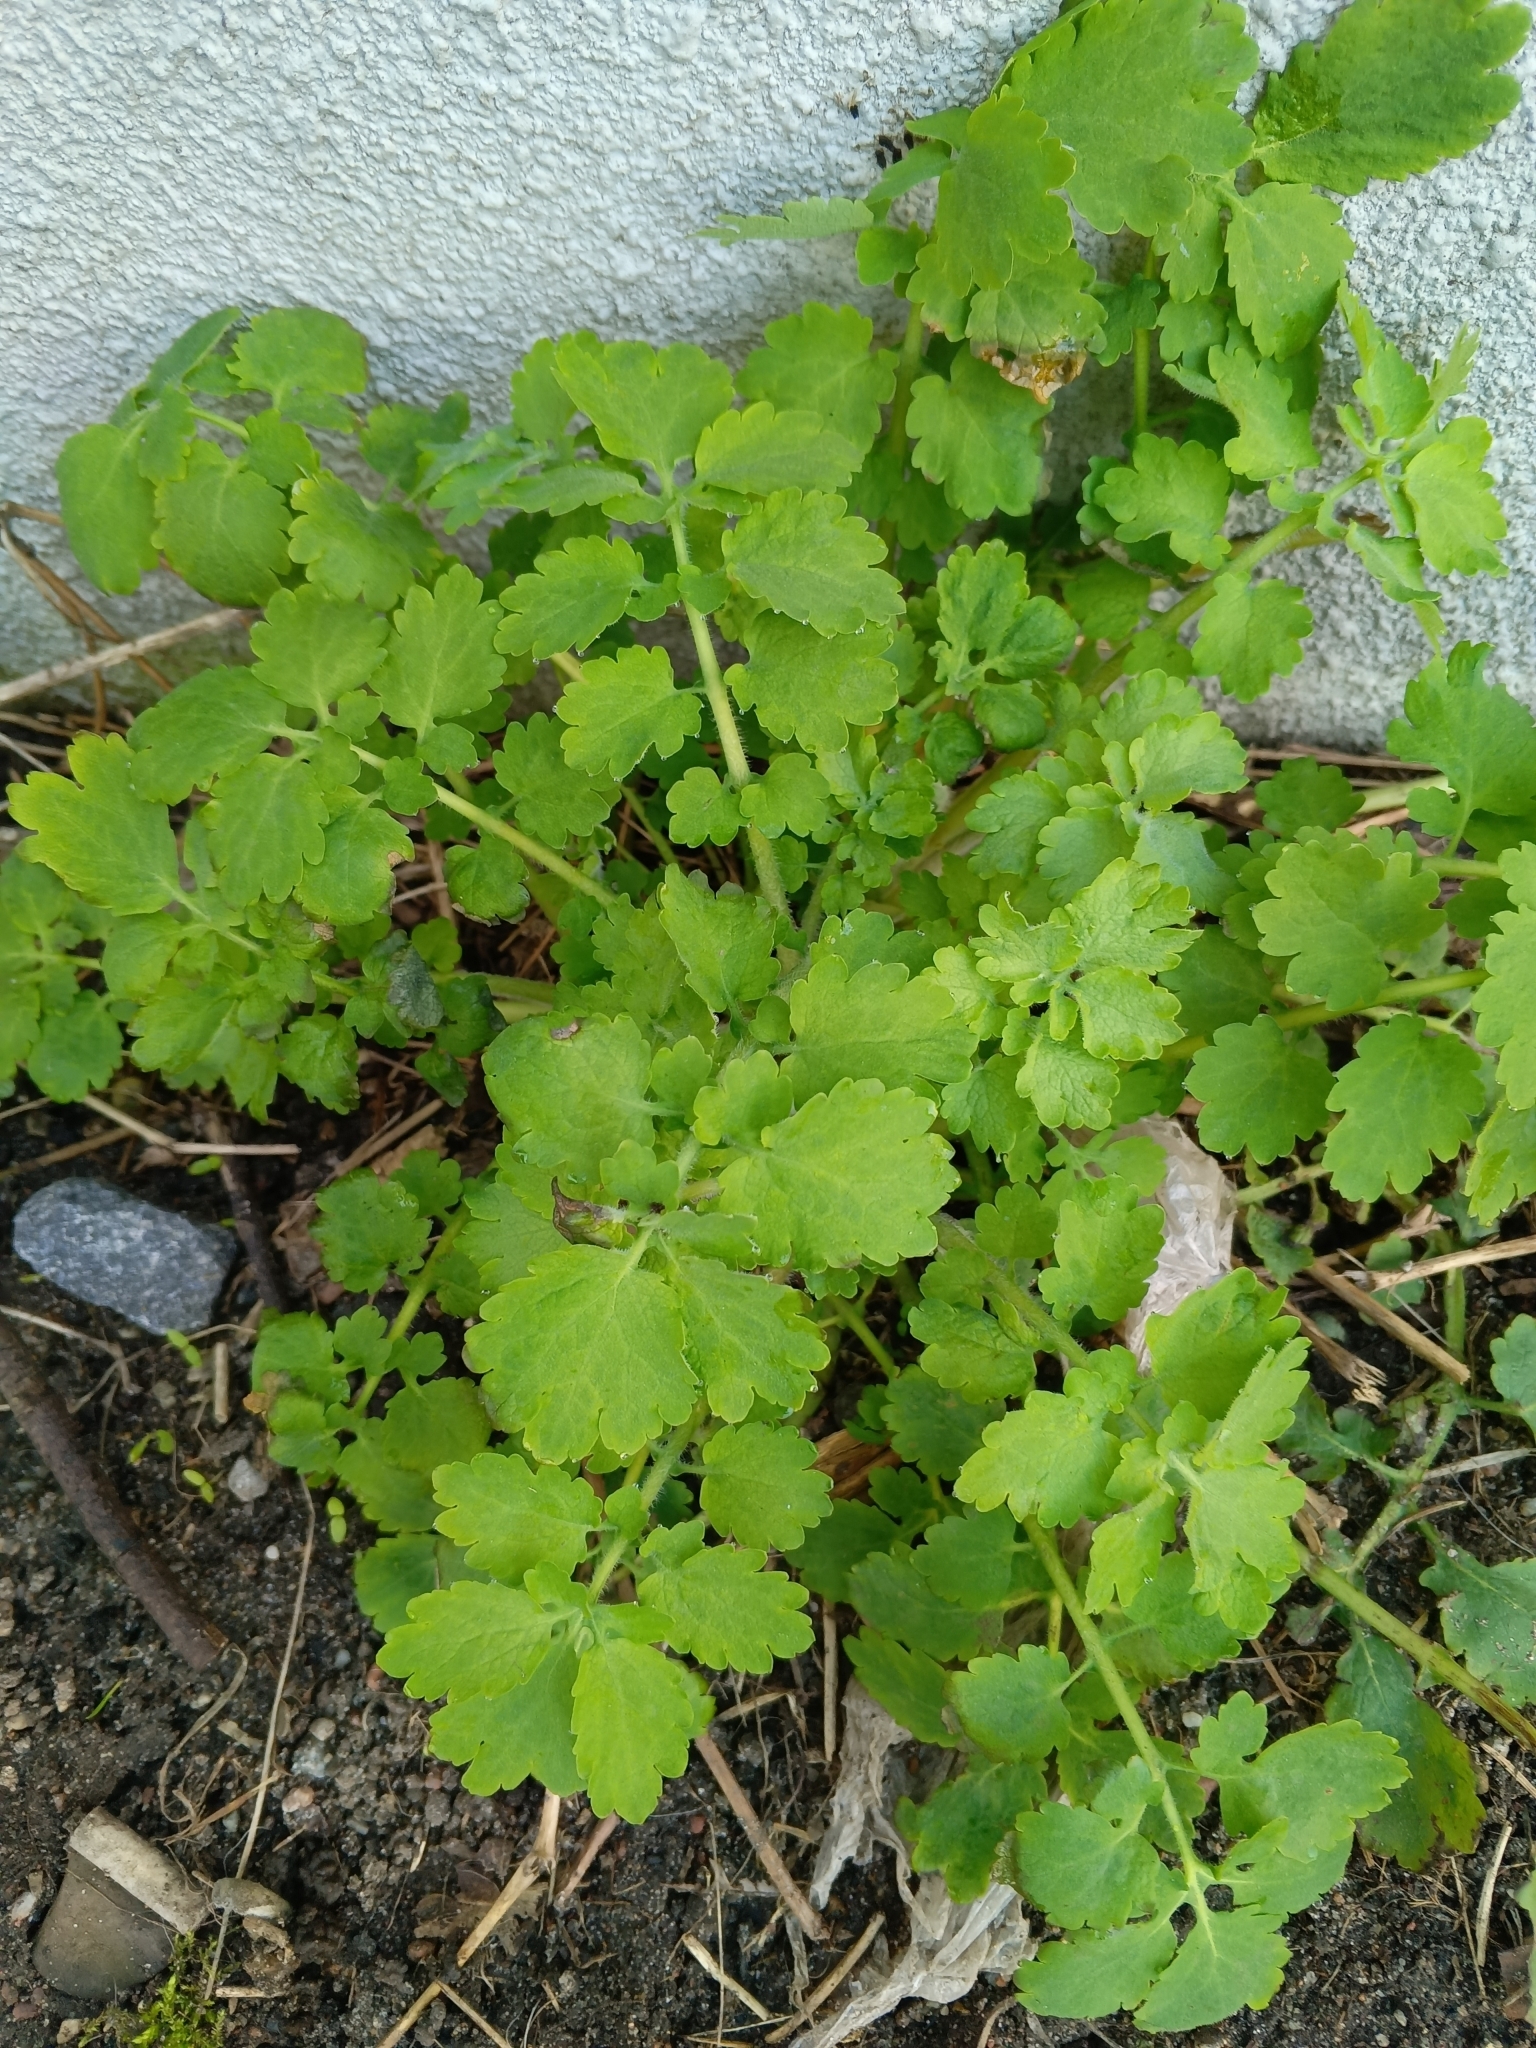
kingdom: Plantae
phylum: Tracheophyta
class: Magnoliopsida
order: Ranunculales
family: Papaveraceae
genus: Chelidonium
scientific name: Chelidonium majus
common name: Greater celandine
